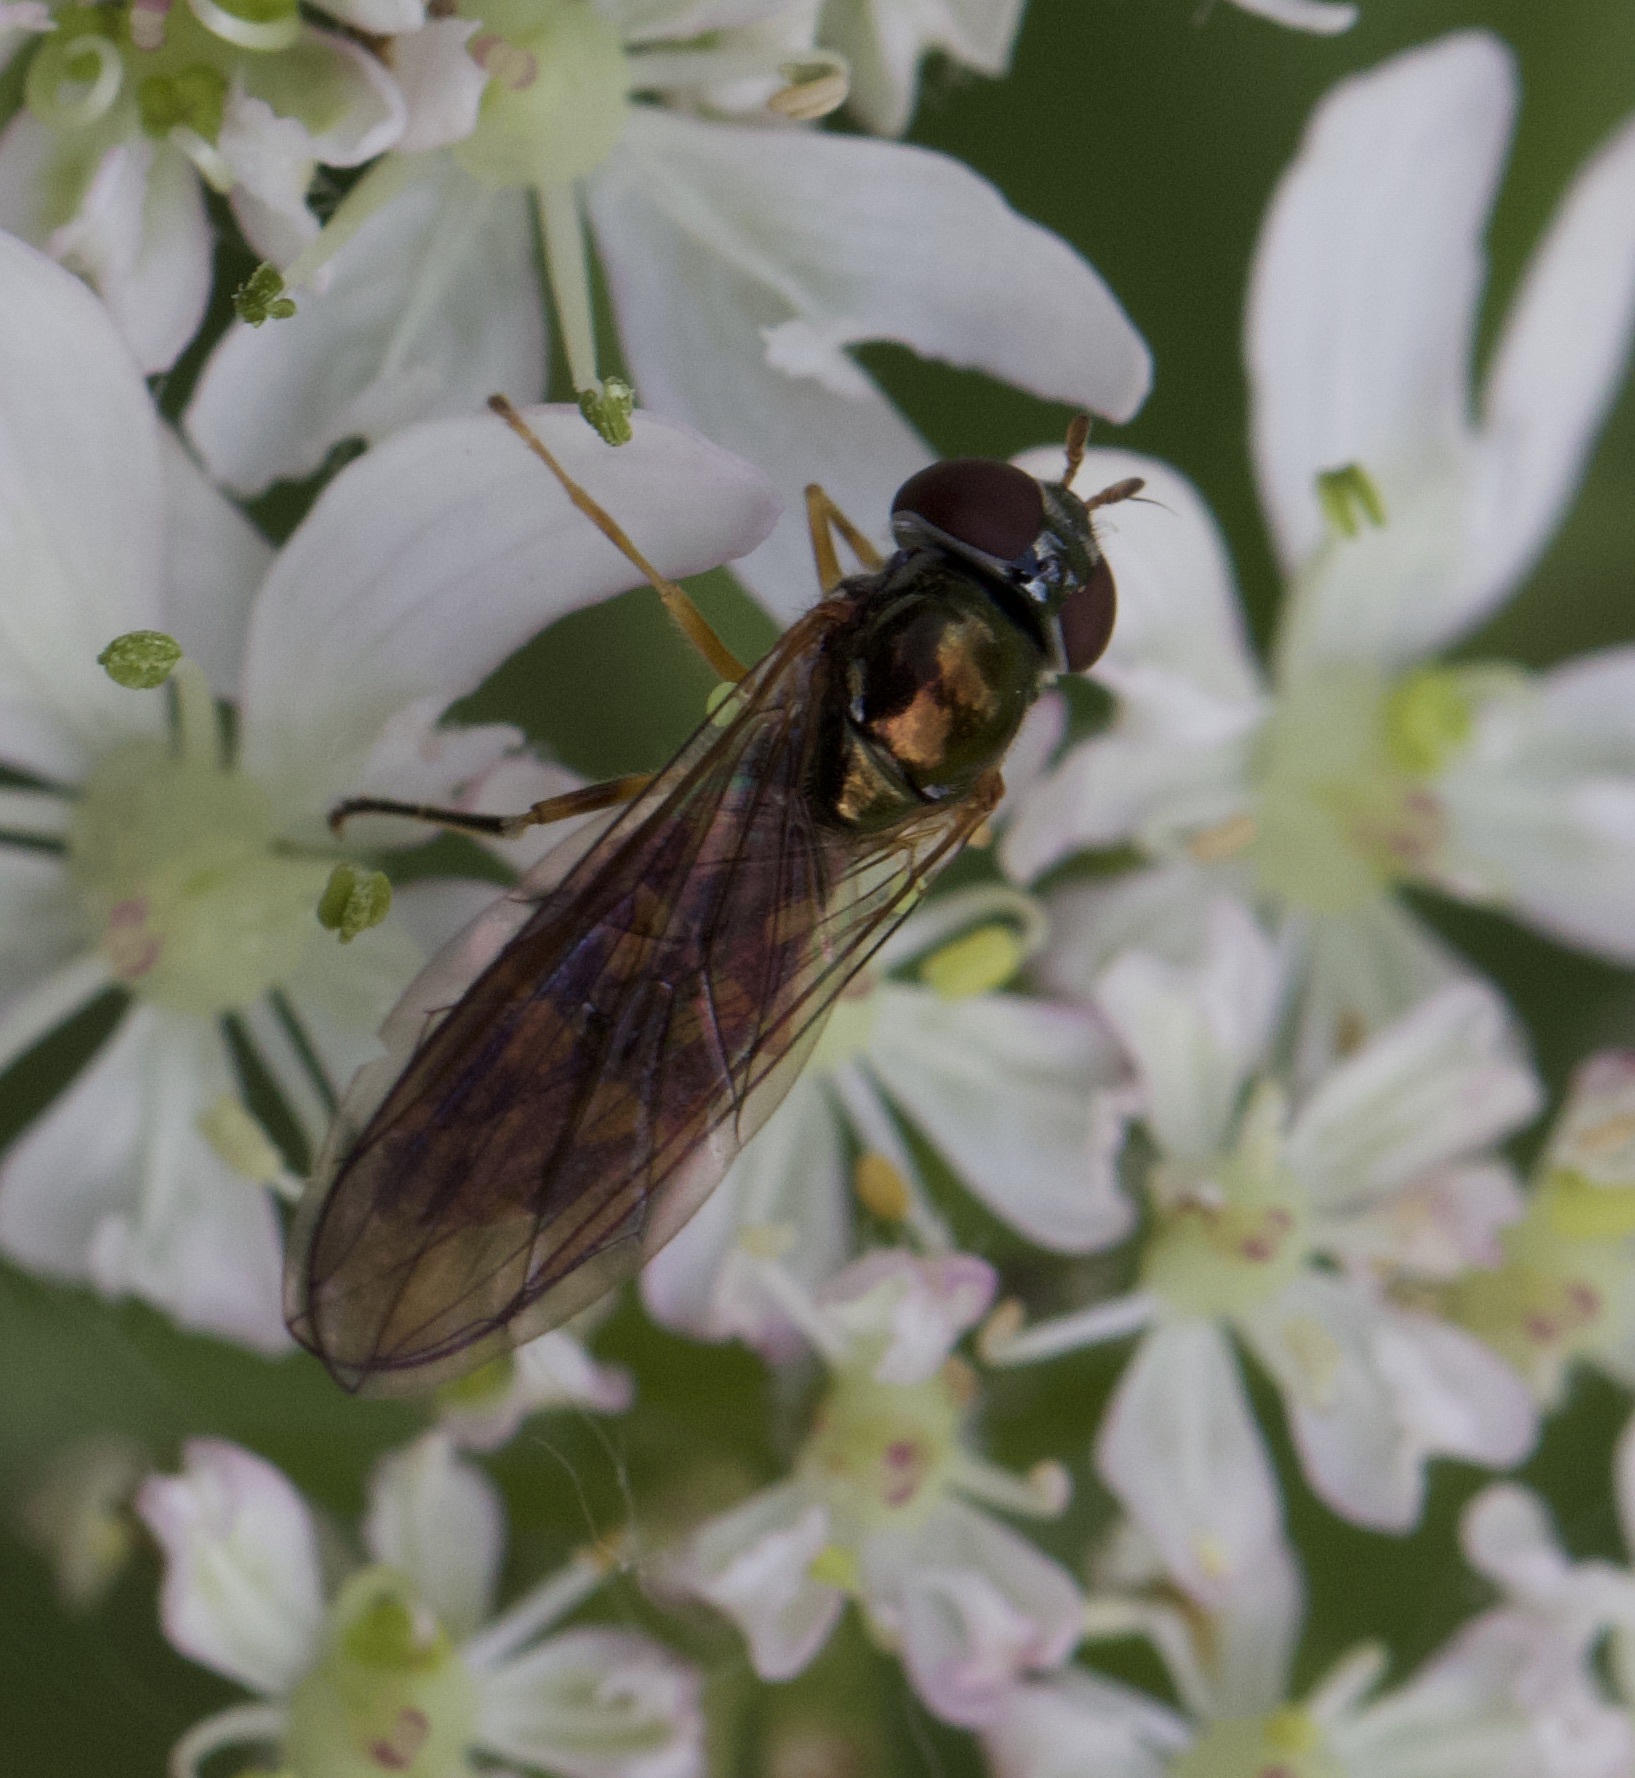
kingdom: Animalia
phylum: Arthropoda
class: Insecta
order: Diptera
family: Syrphidae
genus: Melanostoma
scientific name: Melanostoma scalare
